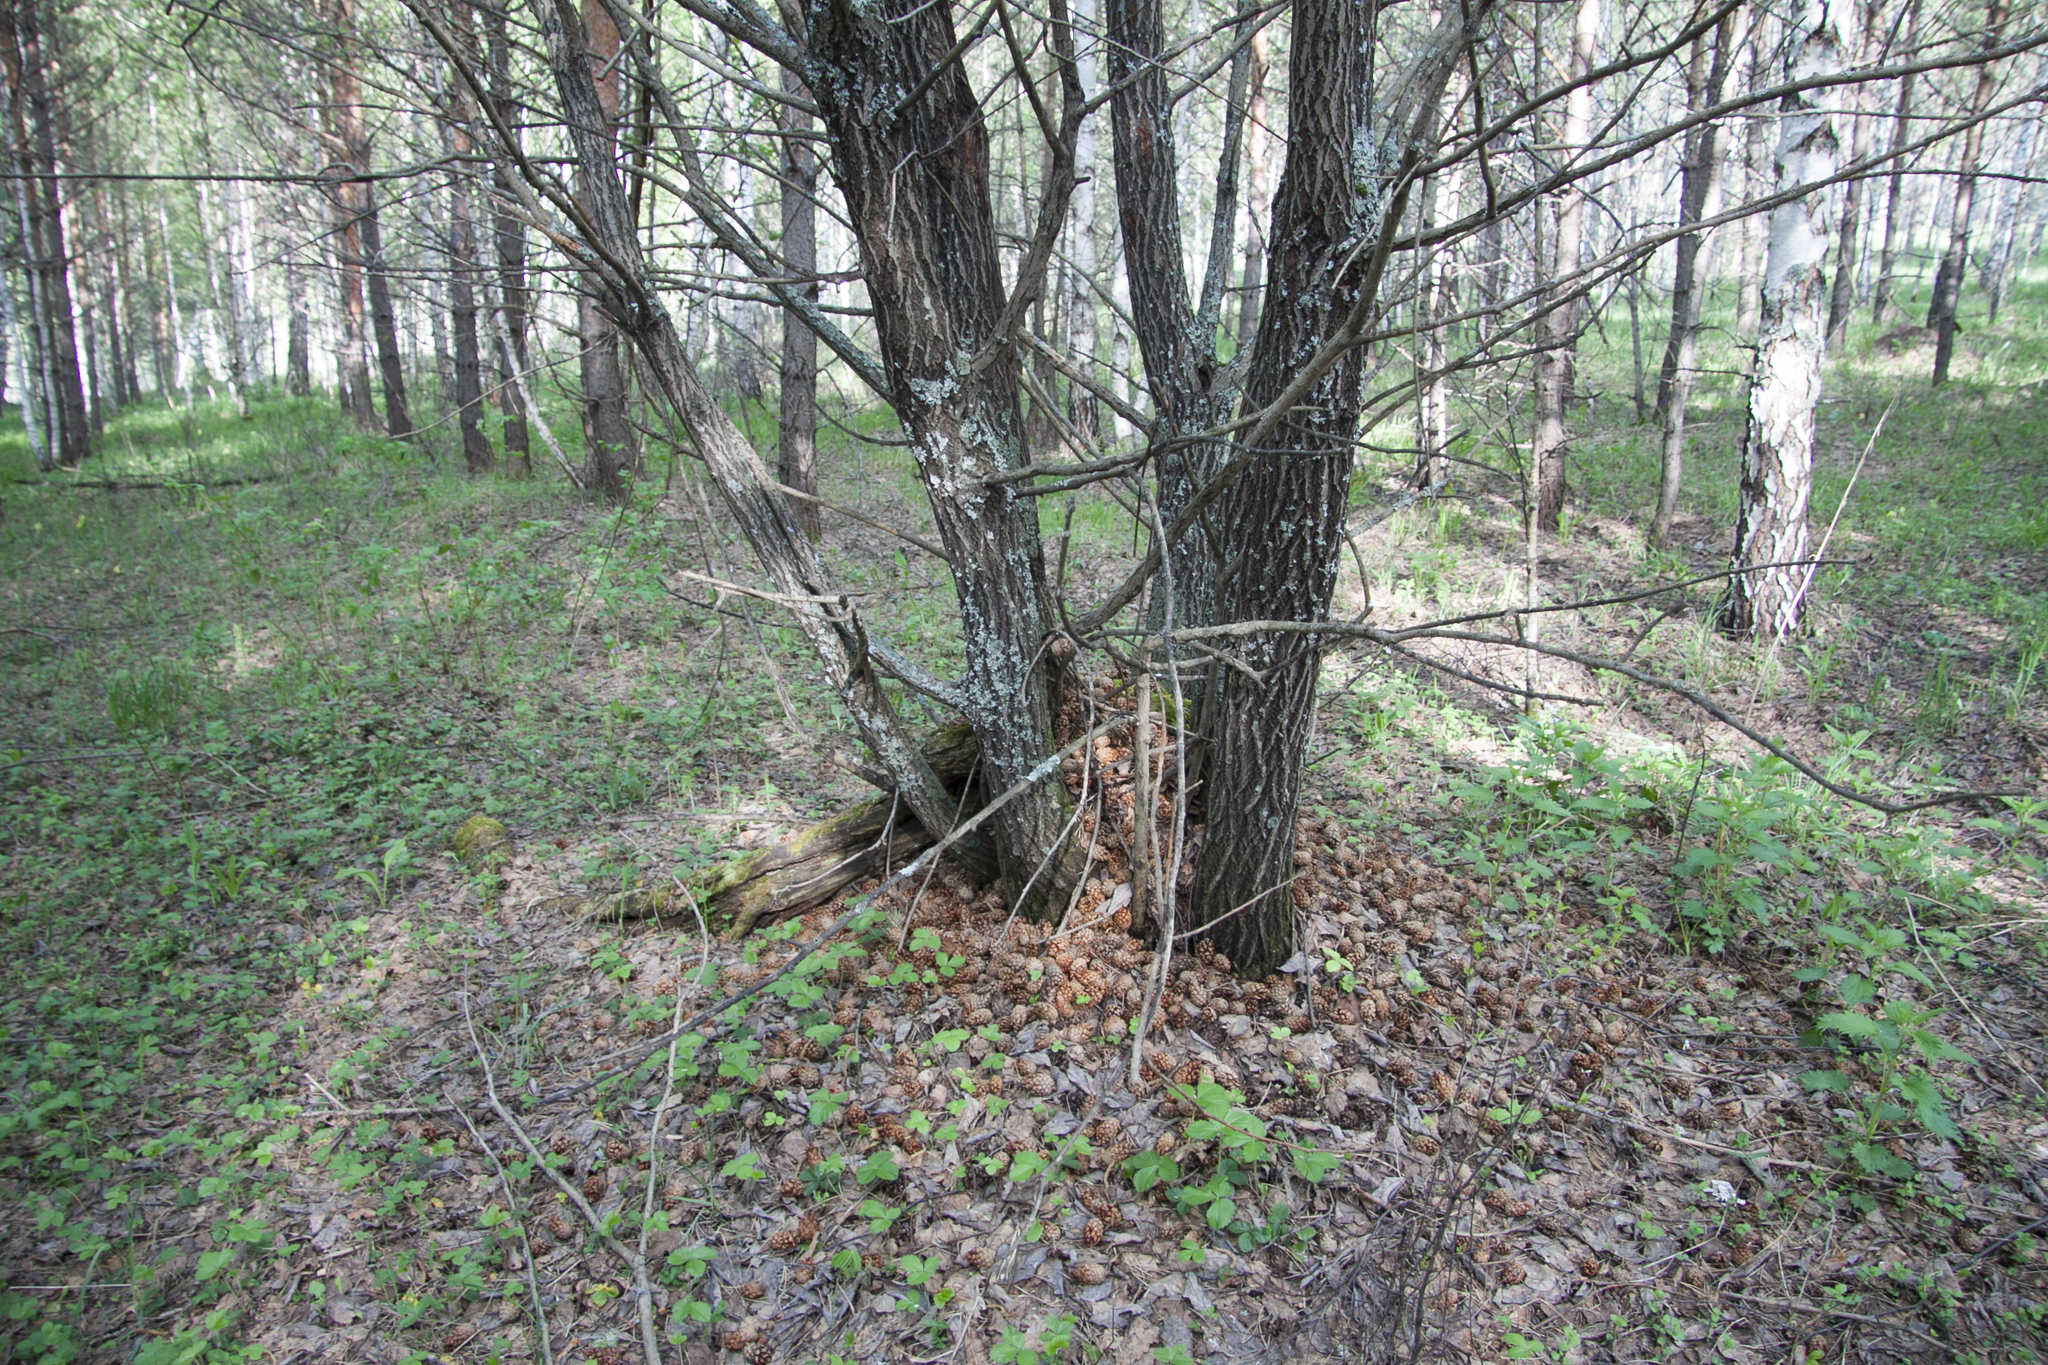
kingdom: Animalia
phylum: Chordata
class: Aves
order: Piciformes
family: Picidae
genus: Dendrocopos
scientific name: Dendrocopos major
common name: Great spotted woodpecker
